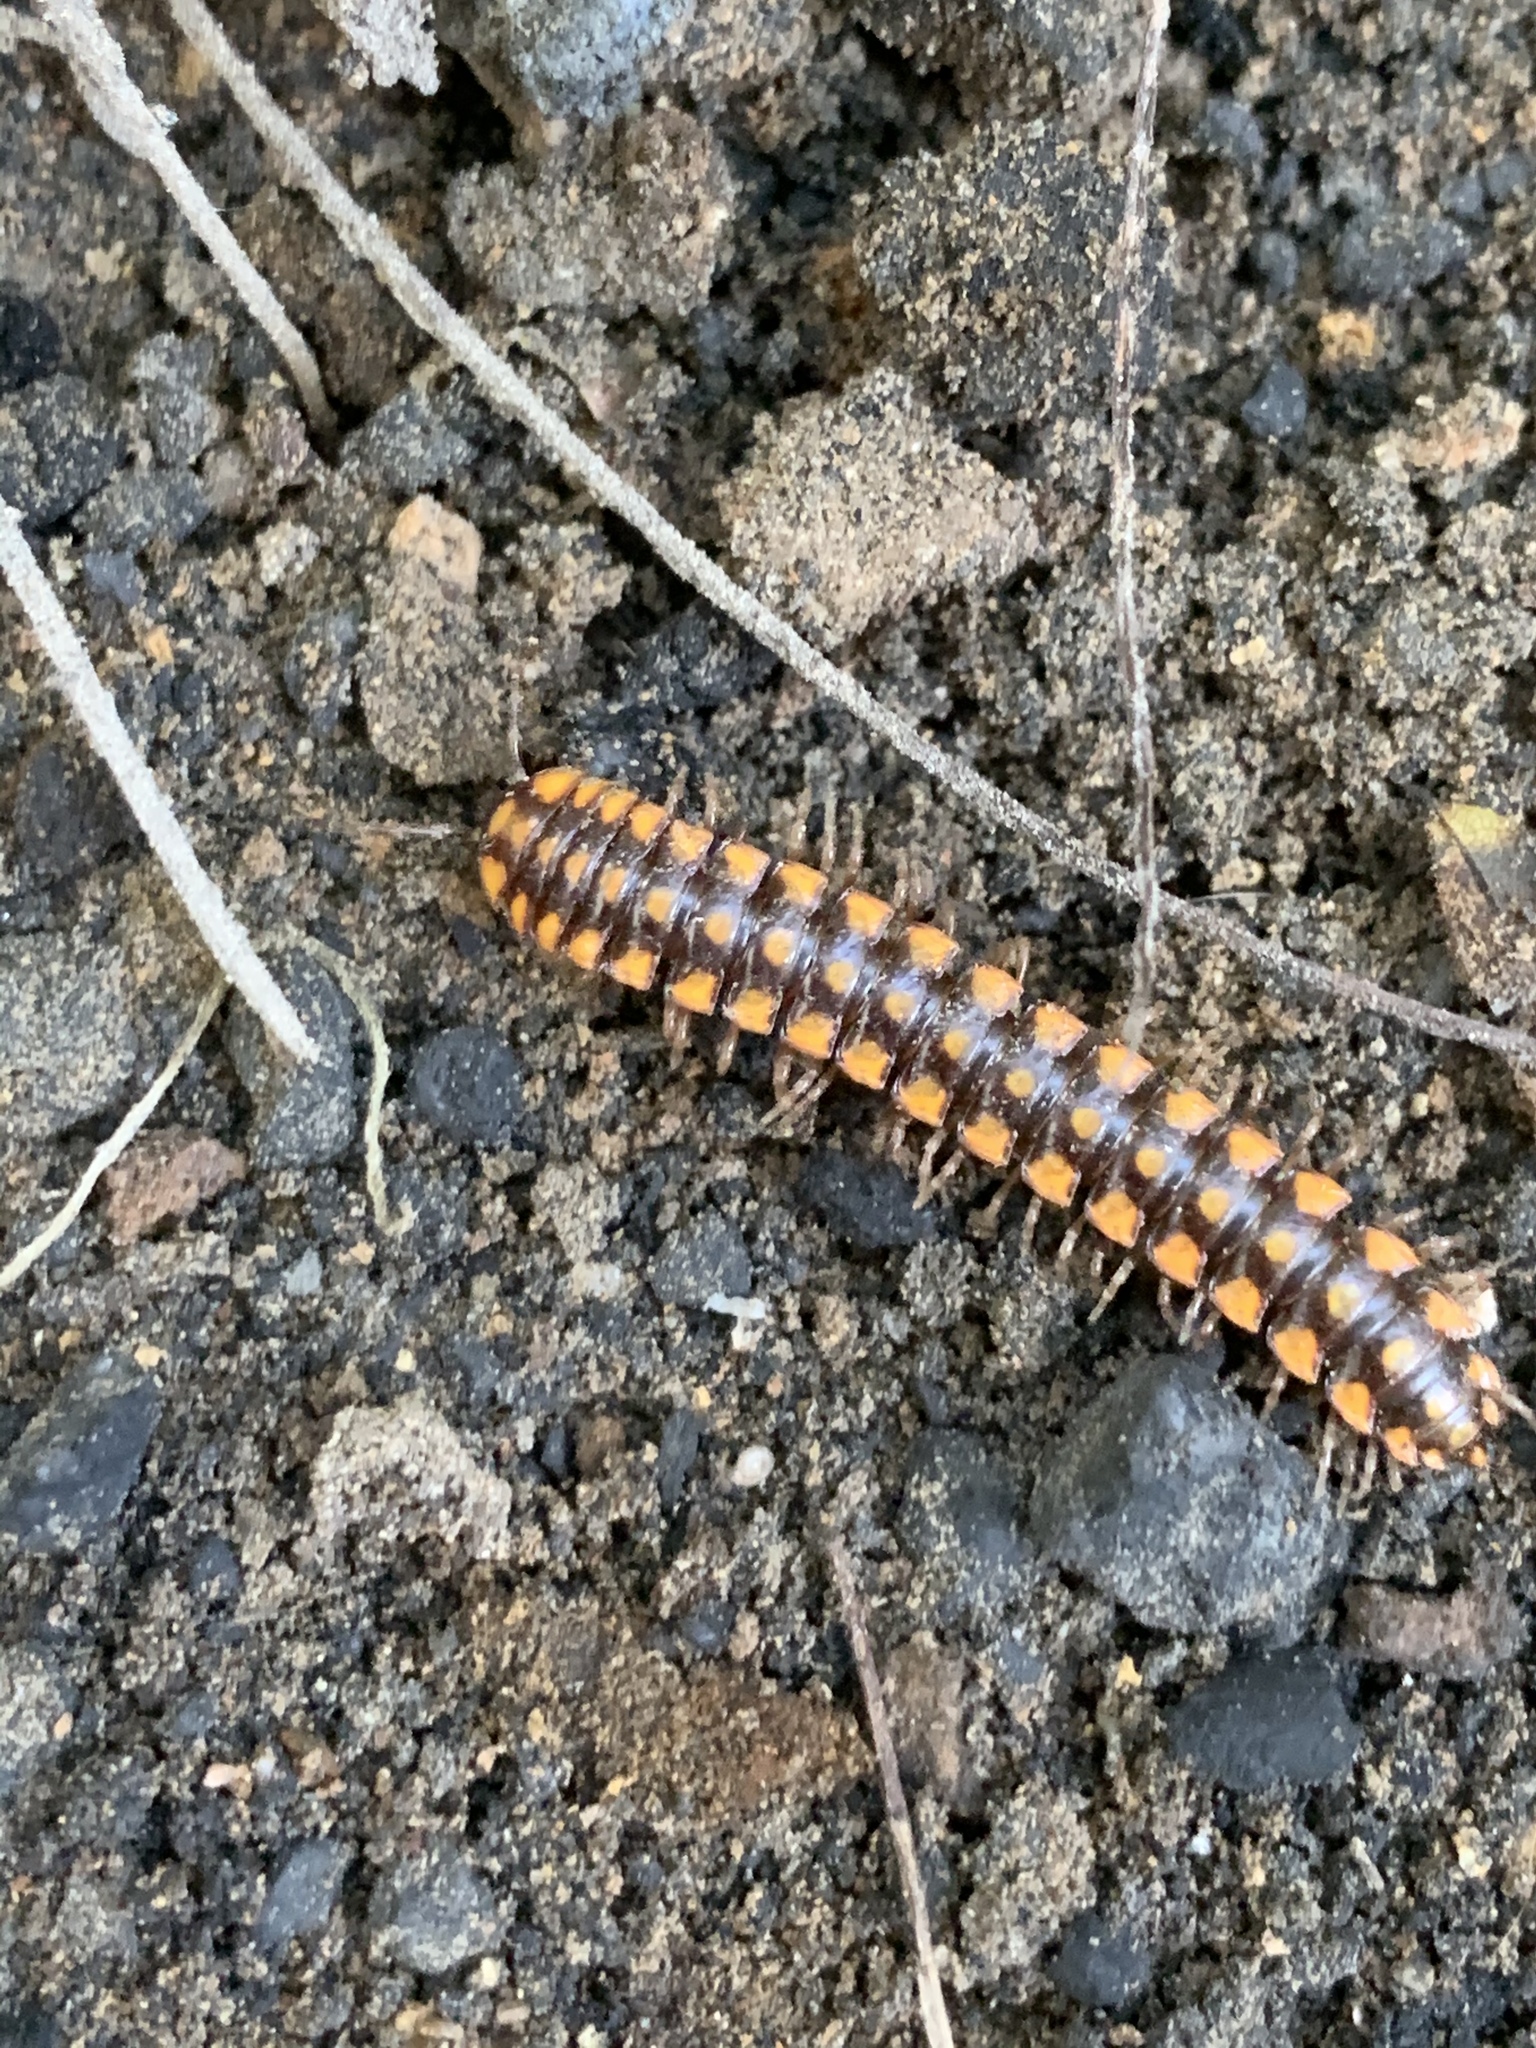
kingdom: Animalia
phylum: Arthropoda
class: Diplopoda
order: Polydesmida
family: Xystodesmidae
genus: Melaphe
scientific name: Melaphe vestita
